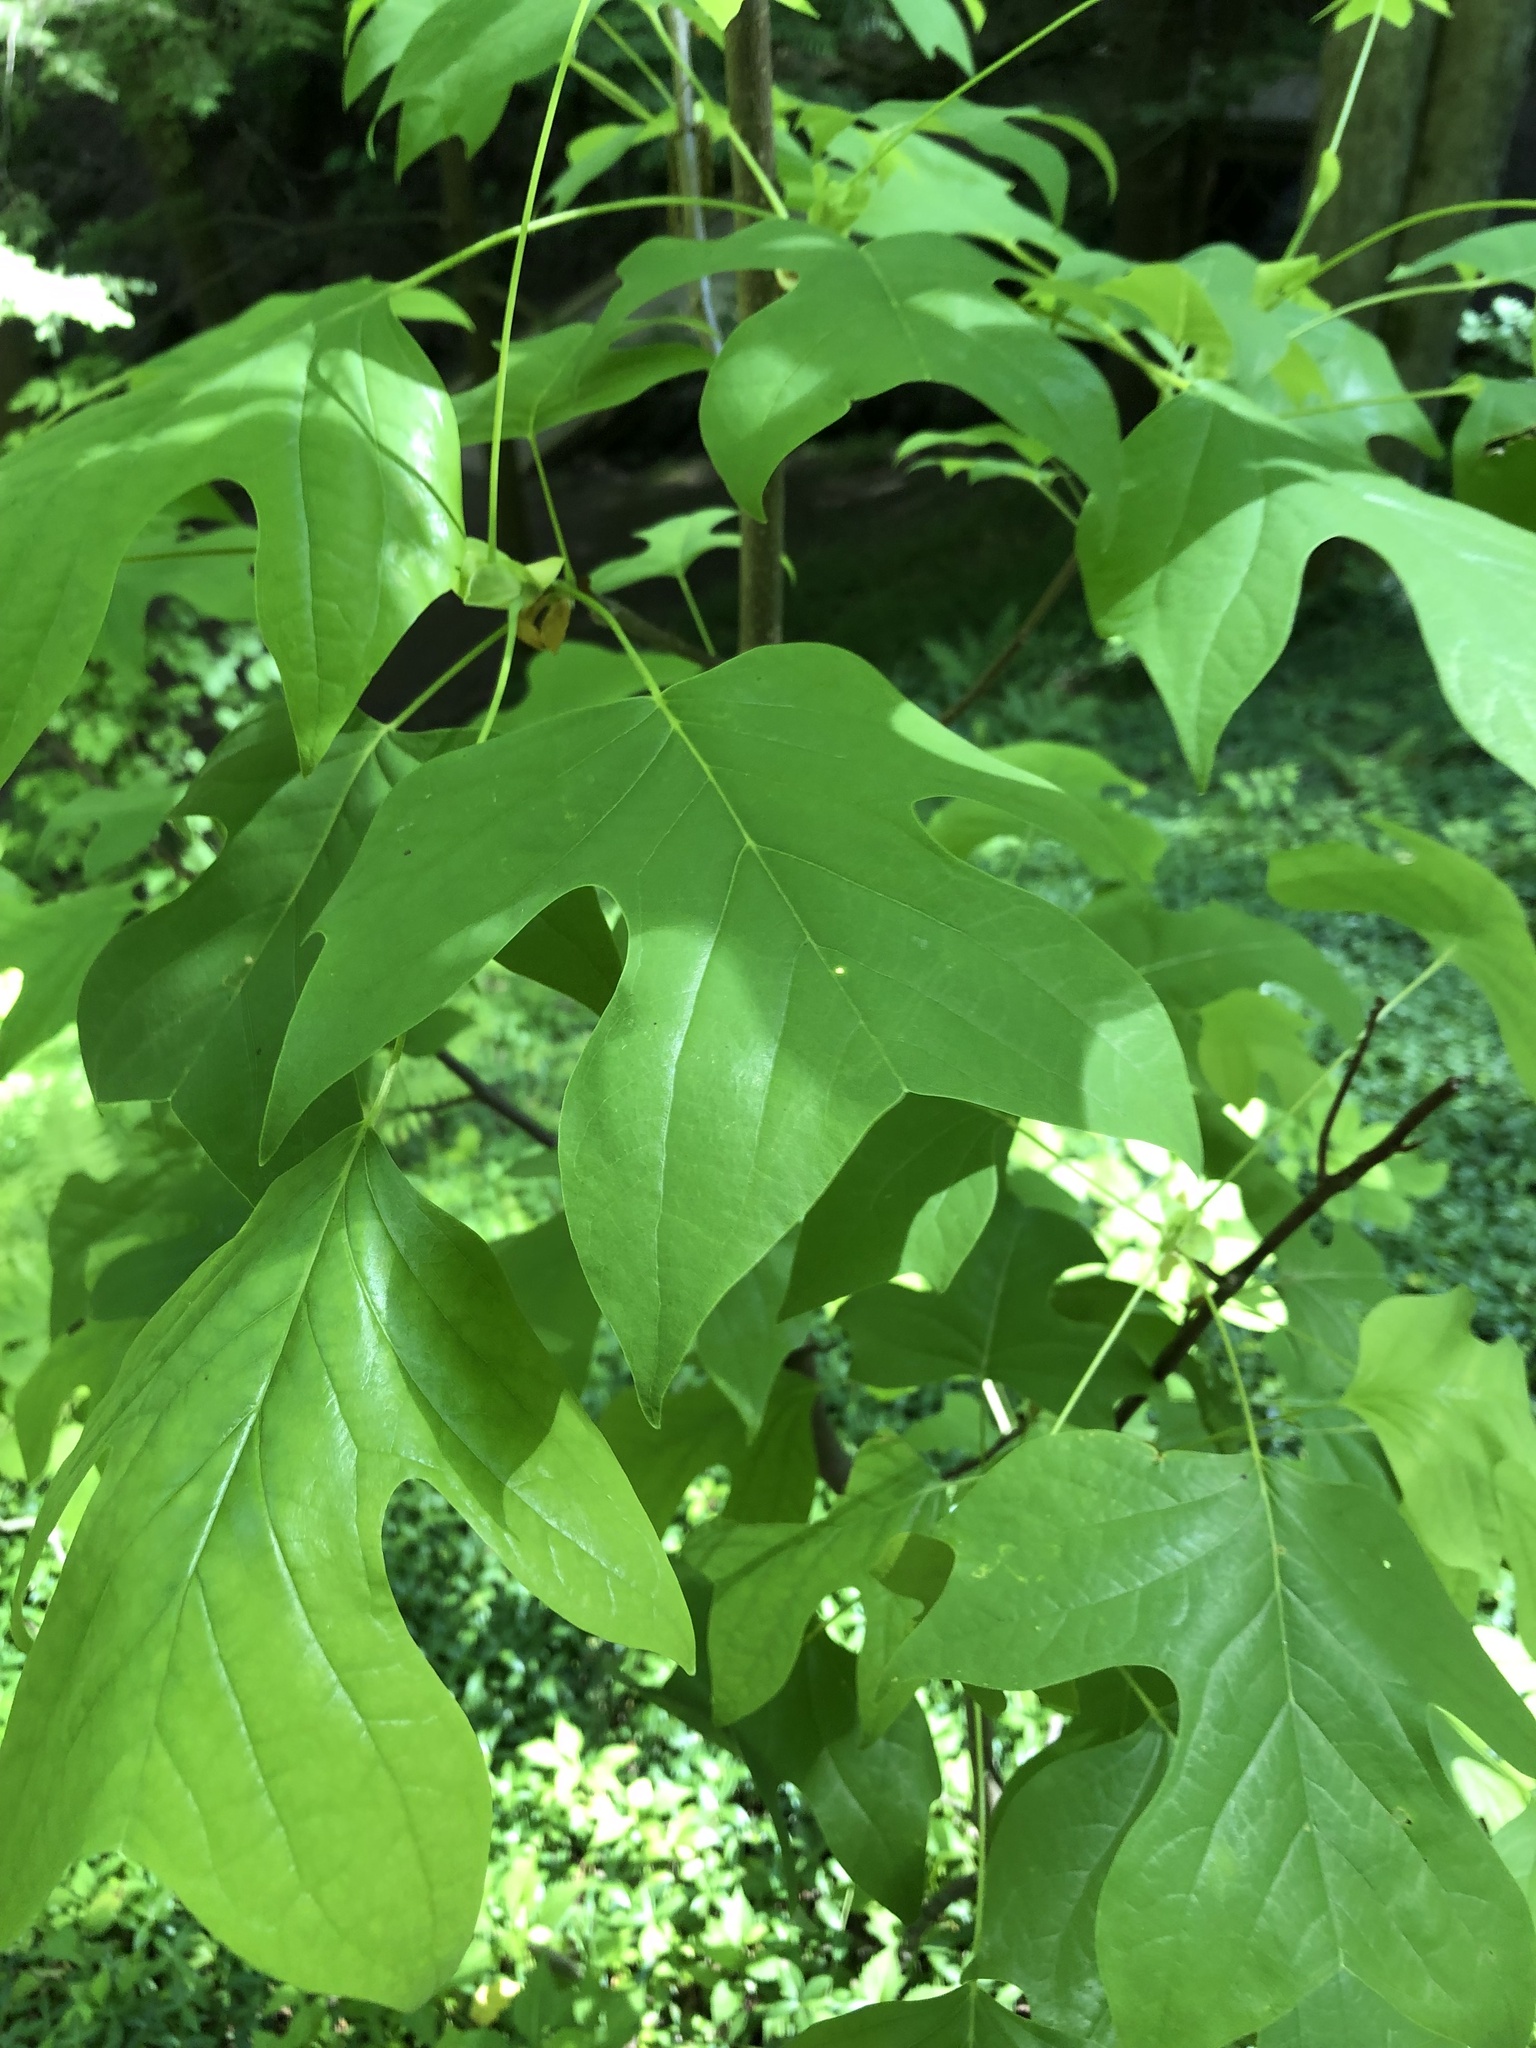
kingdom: Plantae
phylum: Tracheophyta
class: Magnoliopsida
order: Magnoliales
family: Magnoliaceae
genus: Liriodendron
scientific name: Liriodendron tulipifera
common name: Tulip tree
